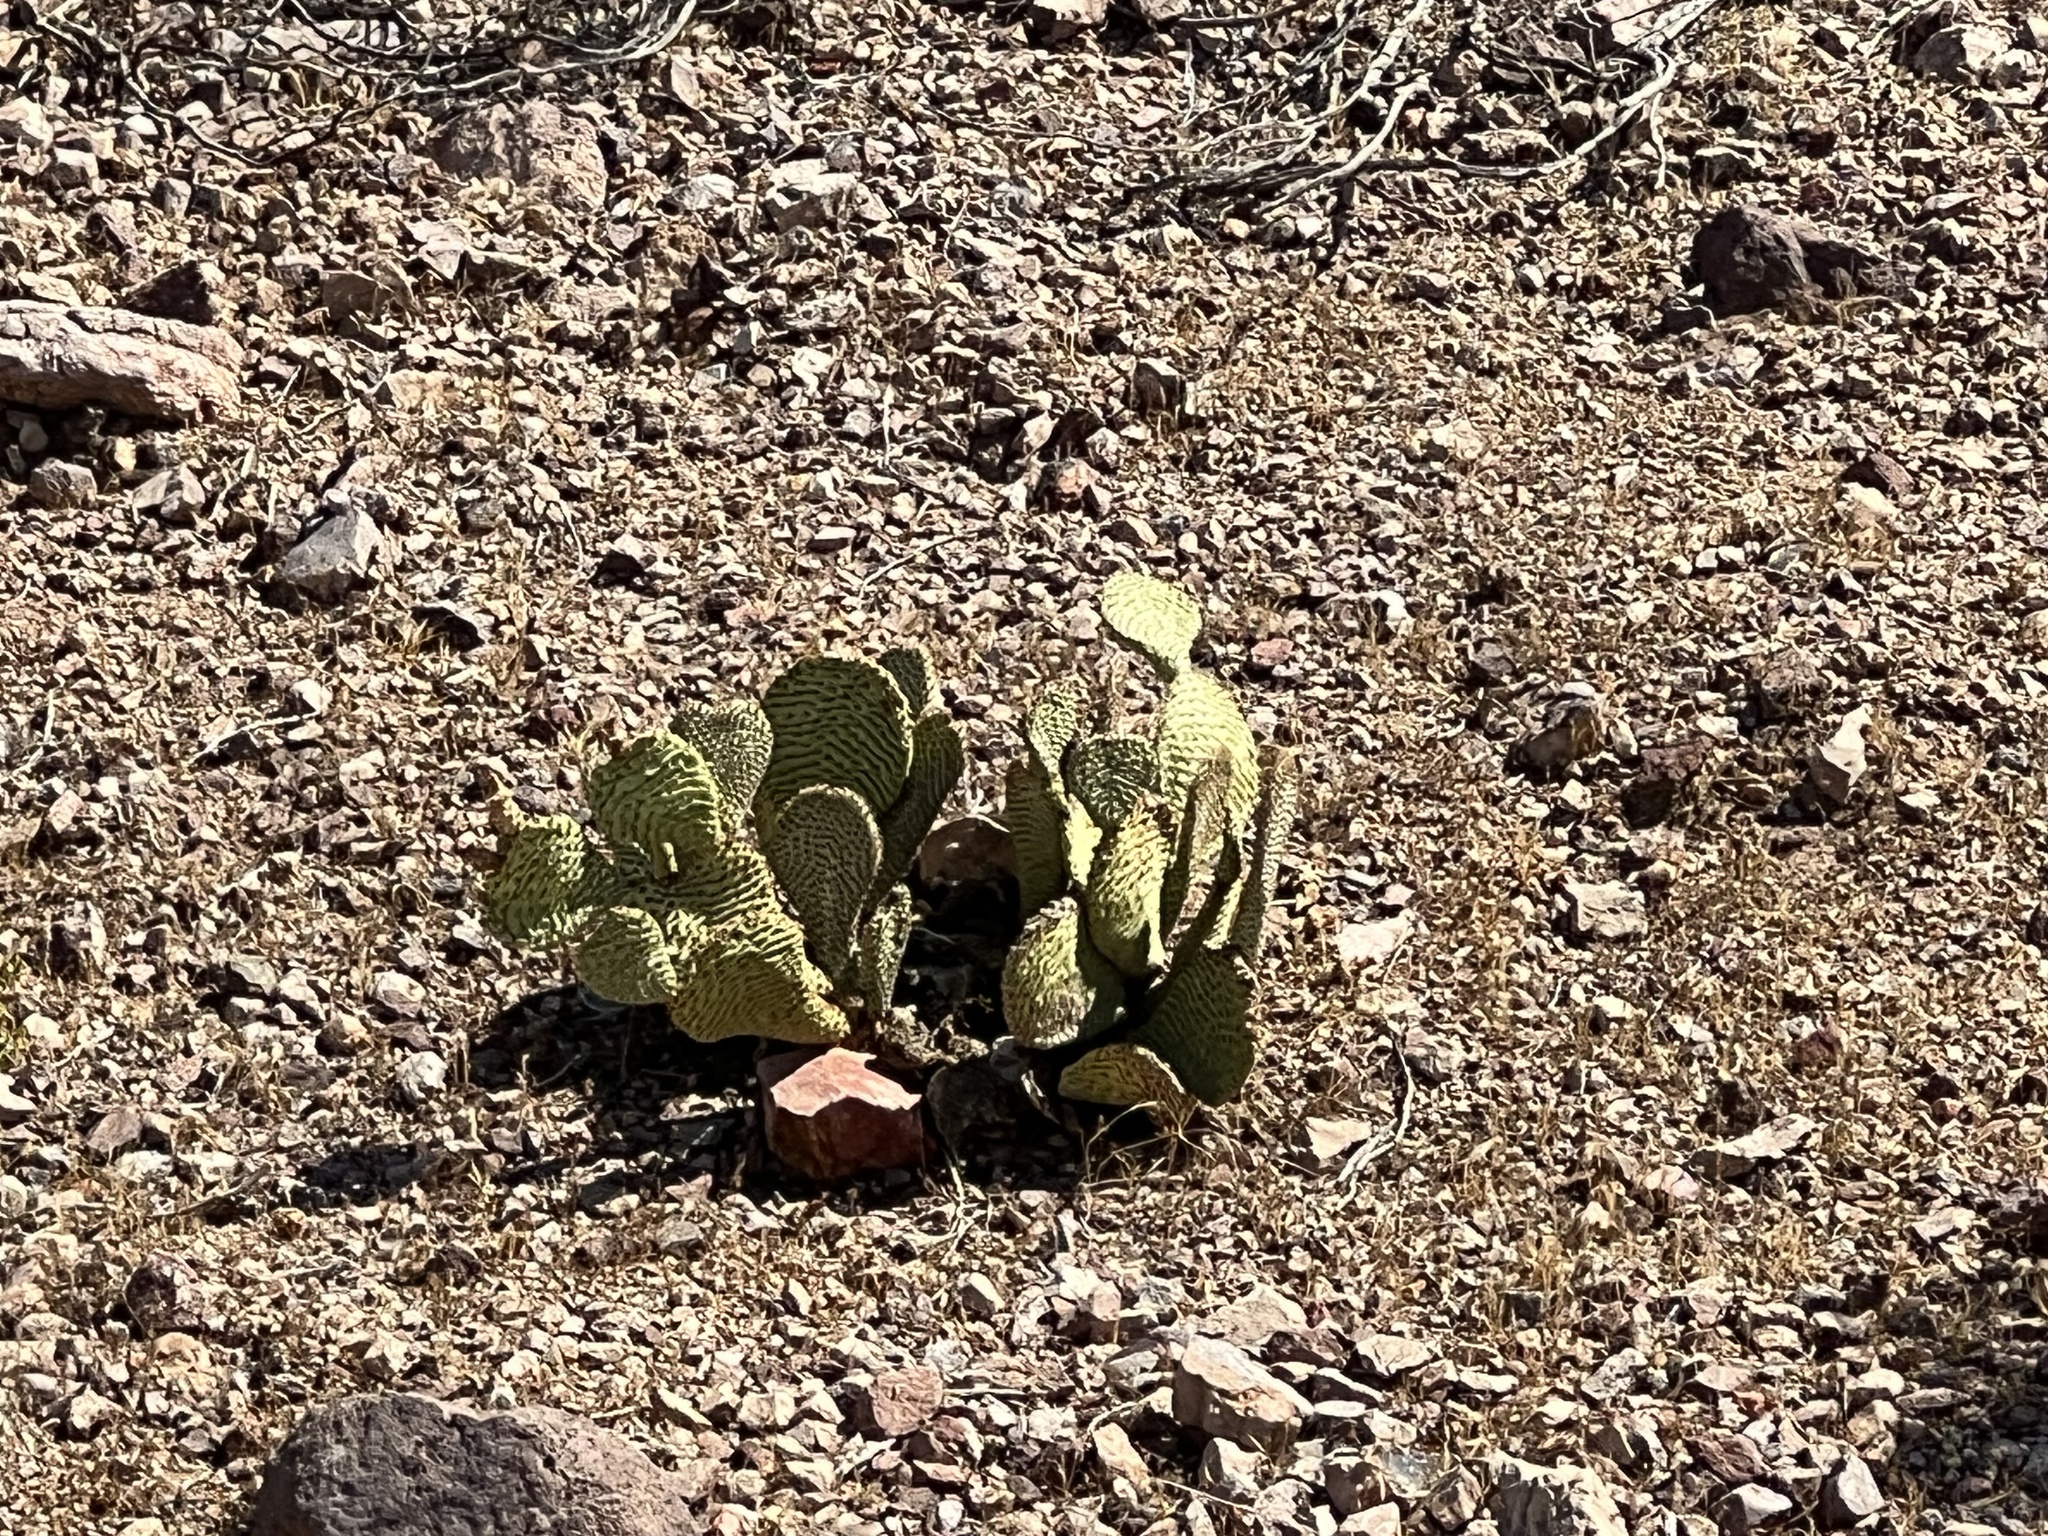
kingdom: Plantae
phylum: Tracheophyta
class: Magnoliopsida
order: Caryophyllales
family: Cactaceae
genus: Opuntia
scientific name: Opuntia basilaris
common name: Beavertail prickly-pear
